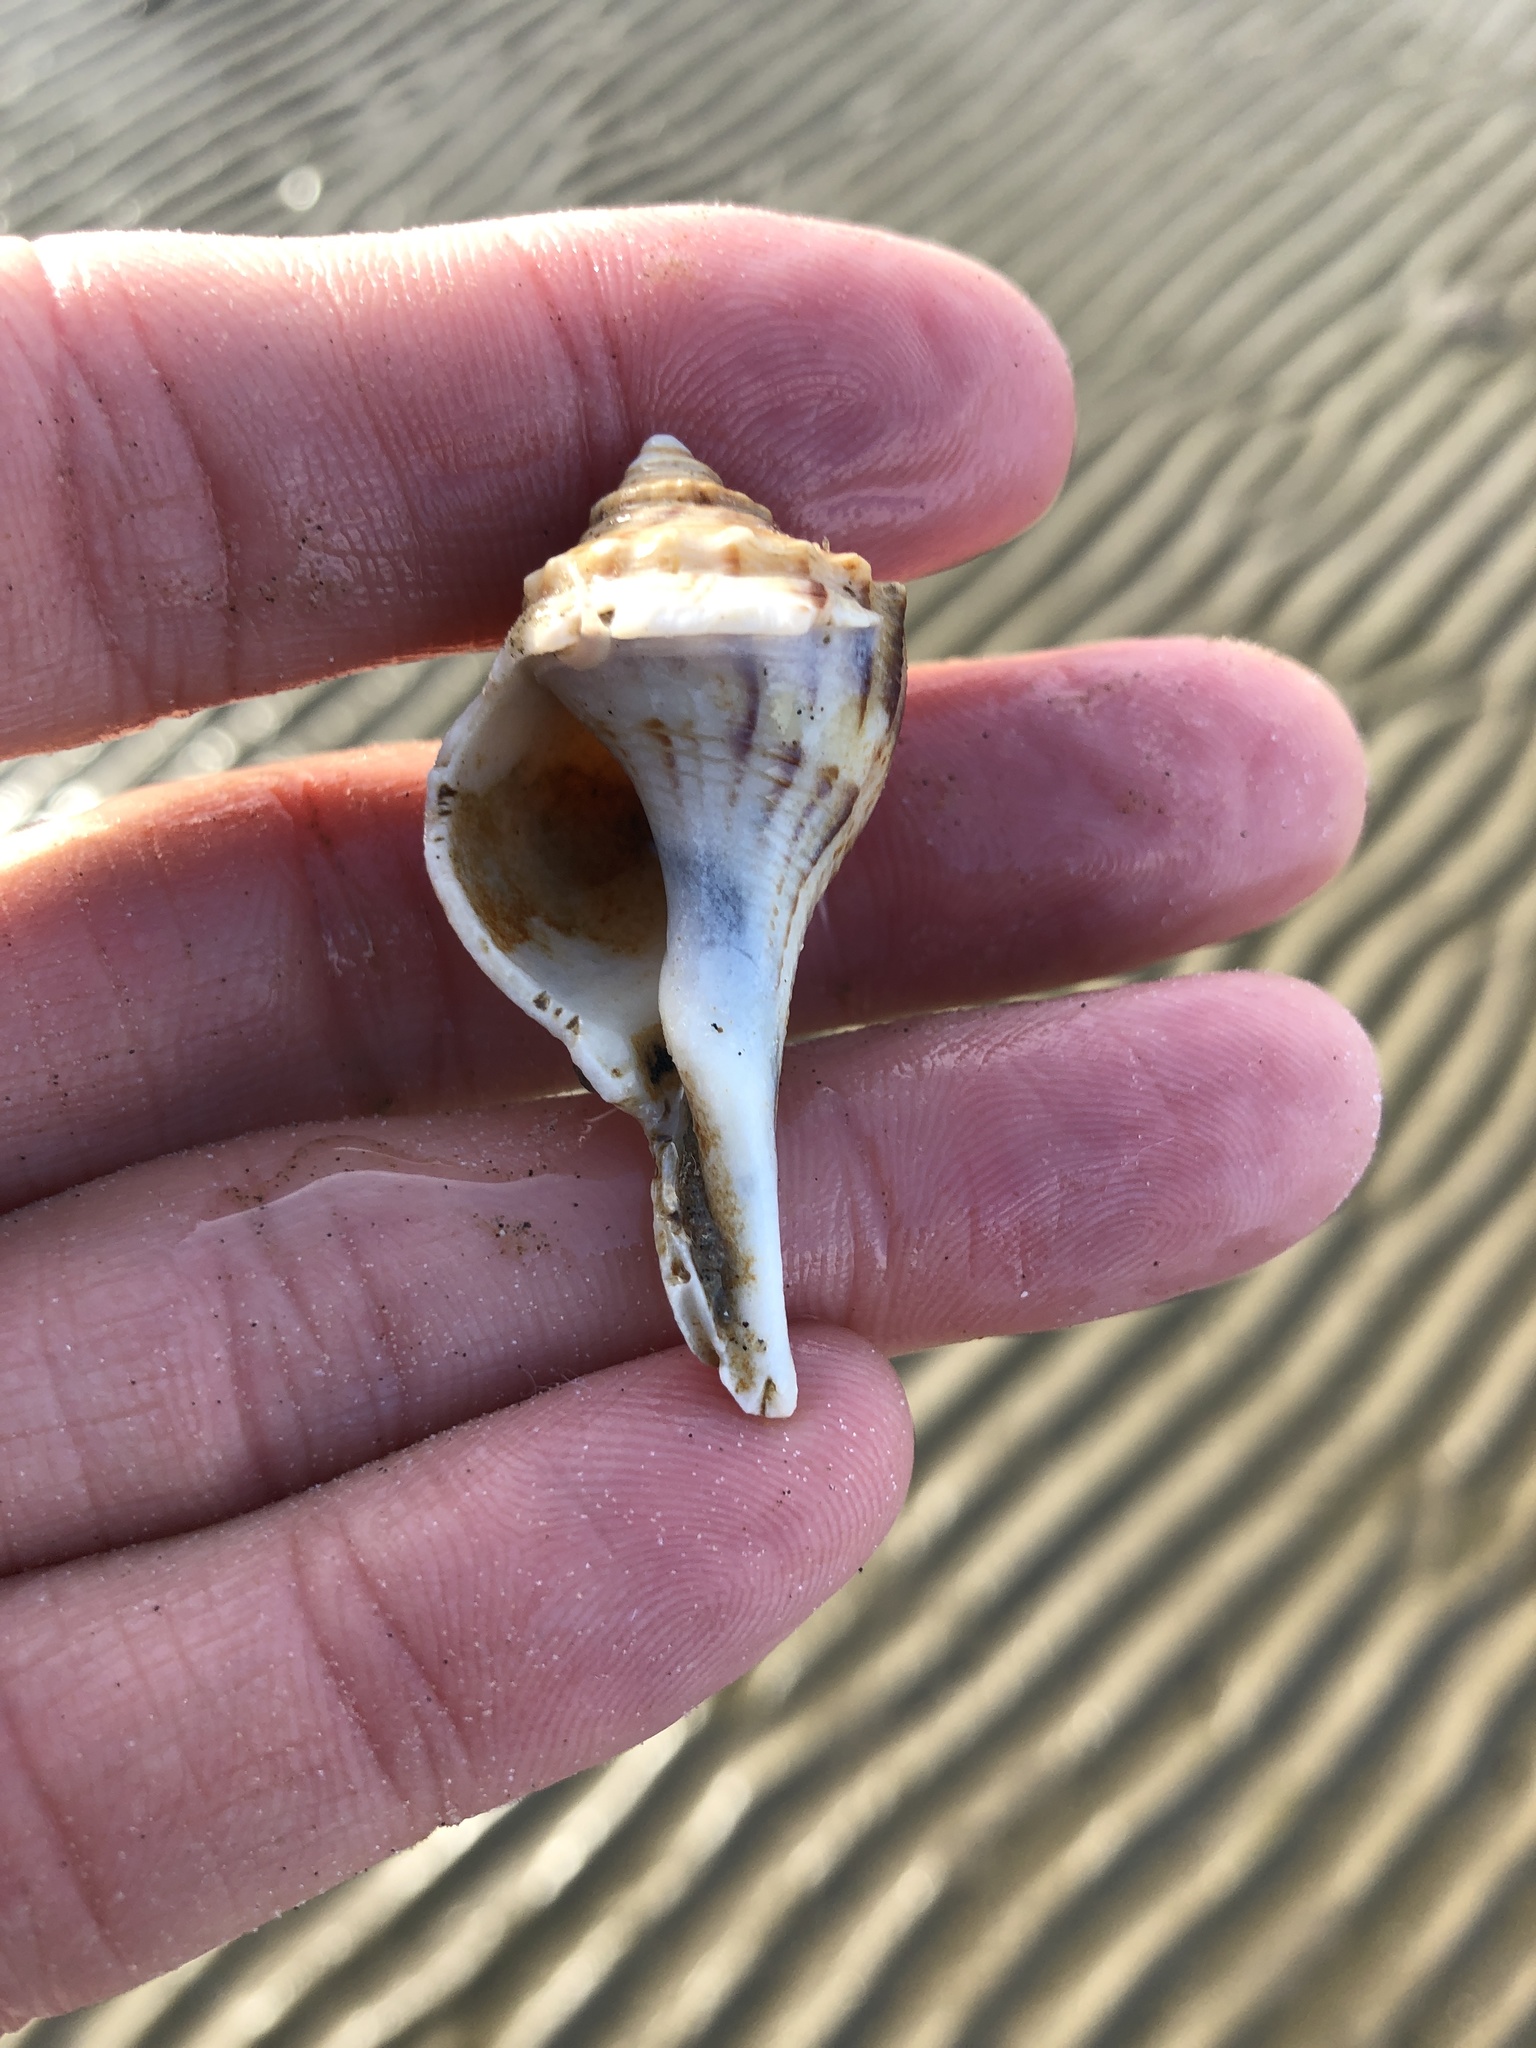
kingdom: Animalia
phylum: Mollusca
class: Gastropoda
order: Neogastropoda
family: Busyconidae
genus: Sinistrofulgur
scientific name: Sinistrofulgur pulleyi
